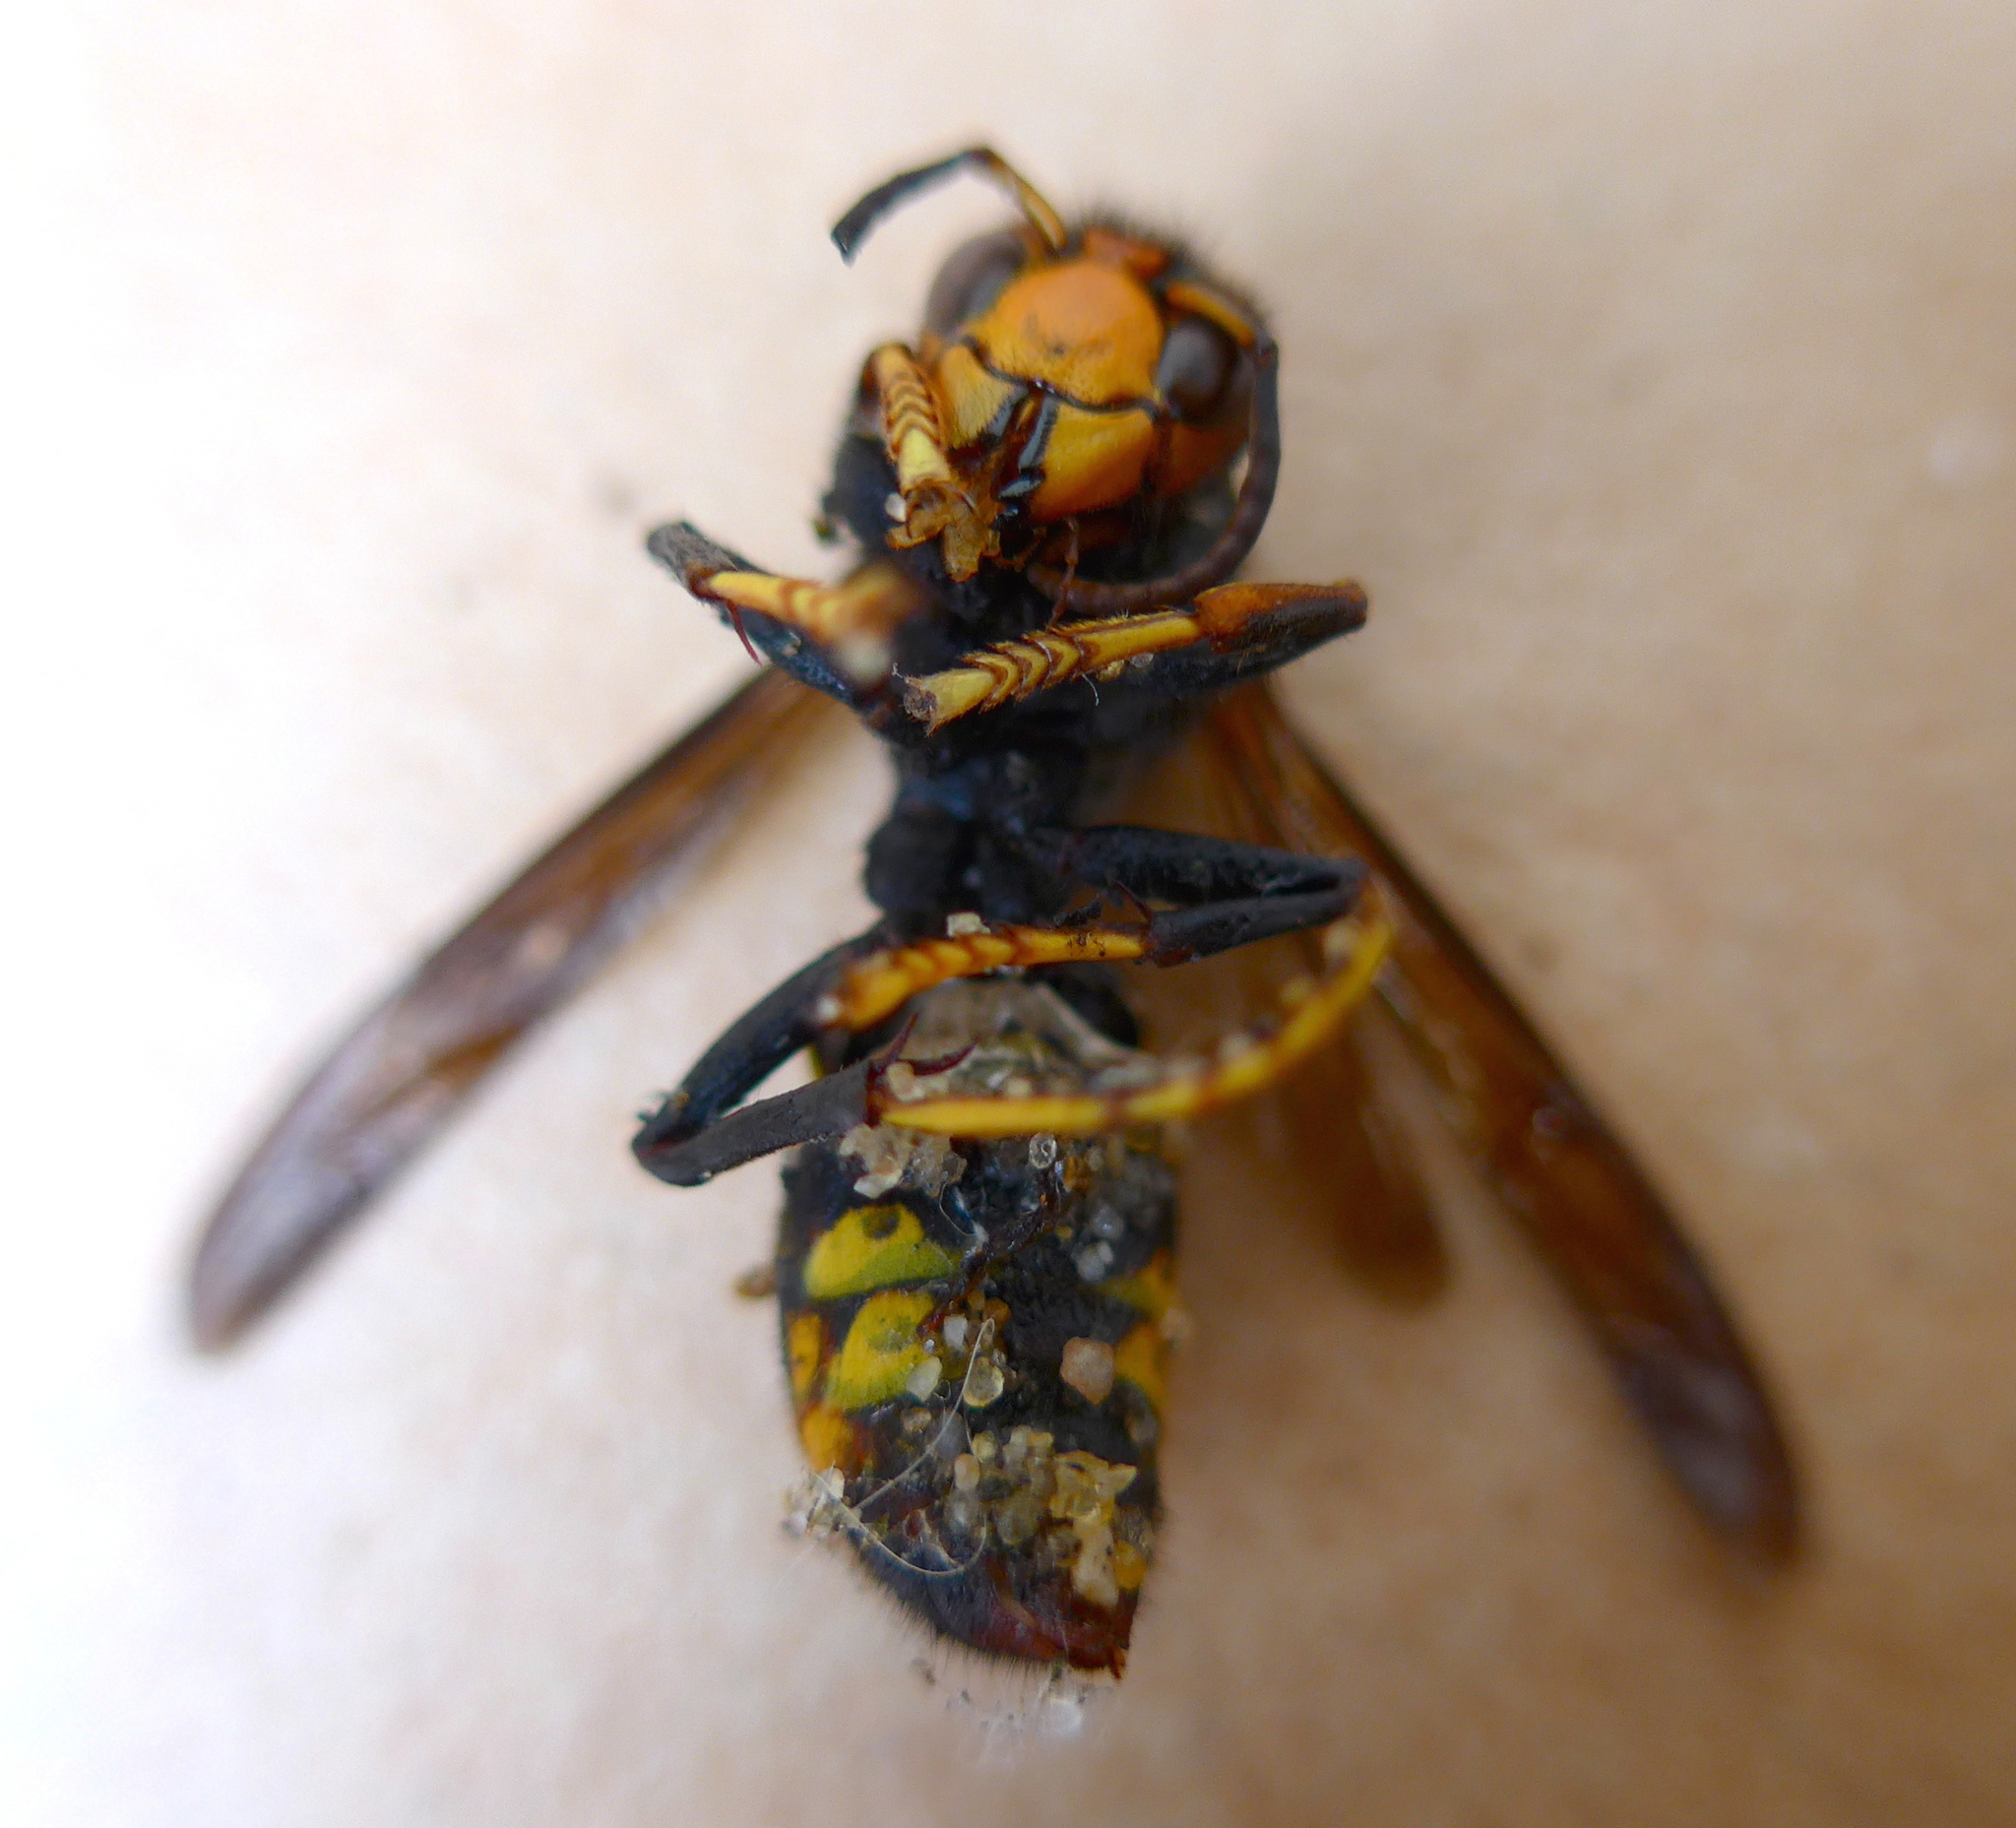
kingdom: Animalia
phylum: Arthropoda
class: Insecta
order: Hymenoptera
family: Vespidae
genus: Vespa
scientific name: Vespa velutina
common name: Asian hornet
